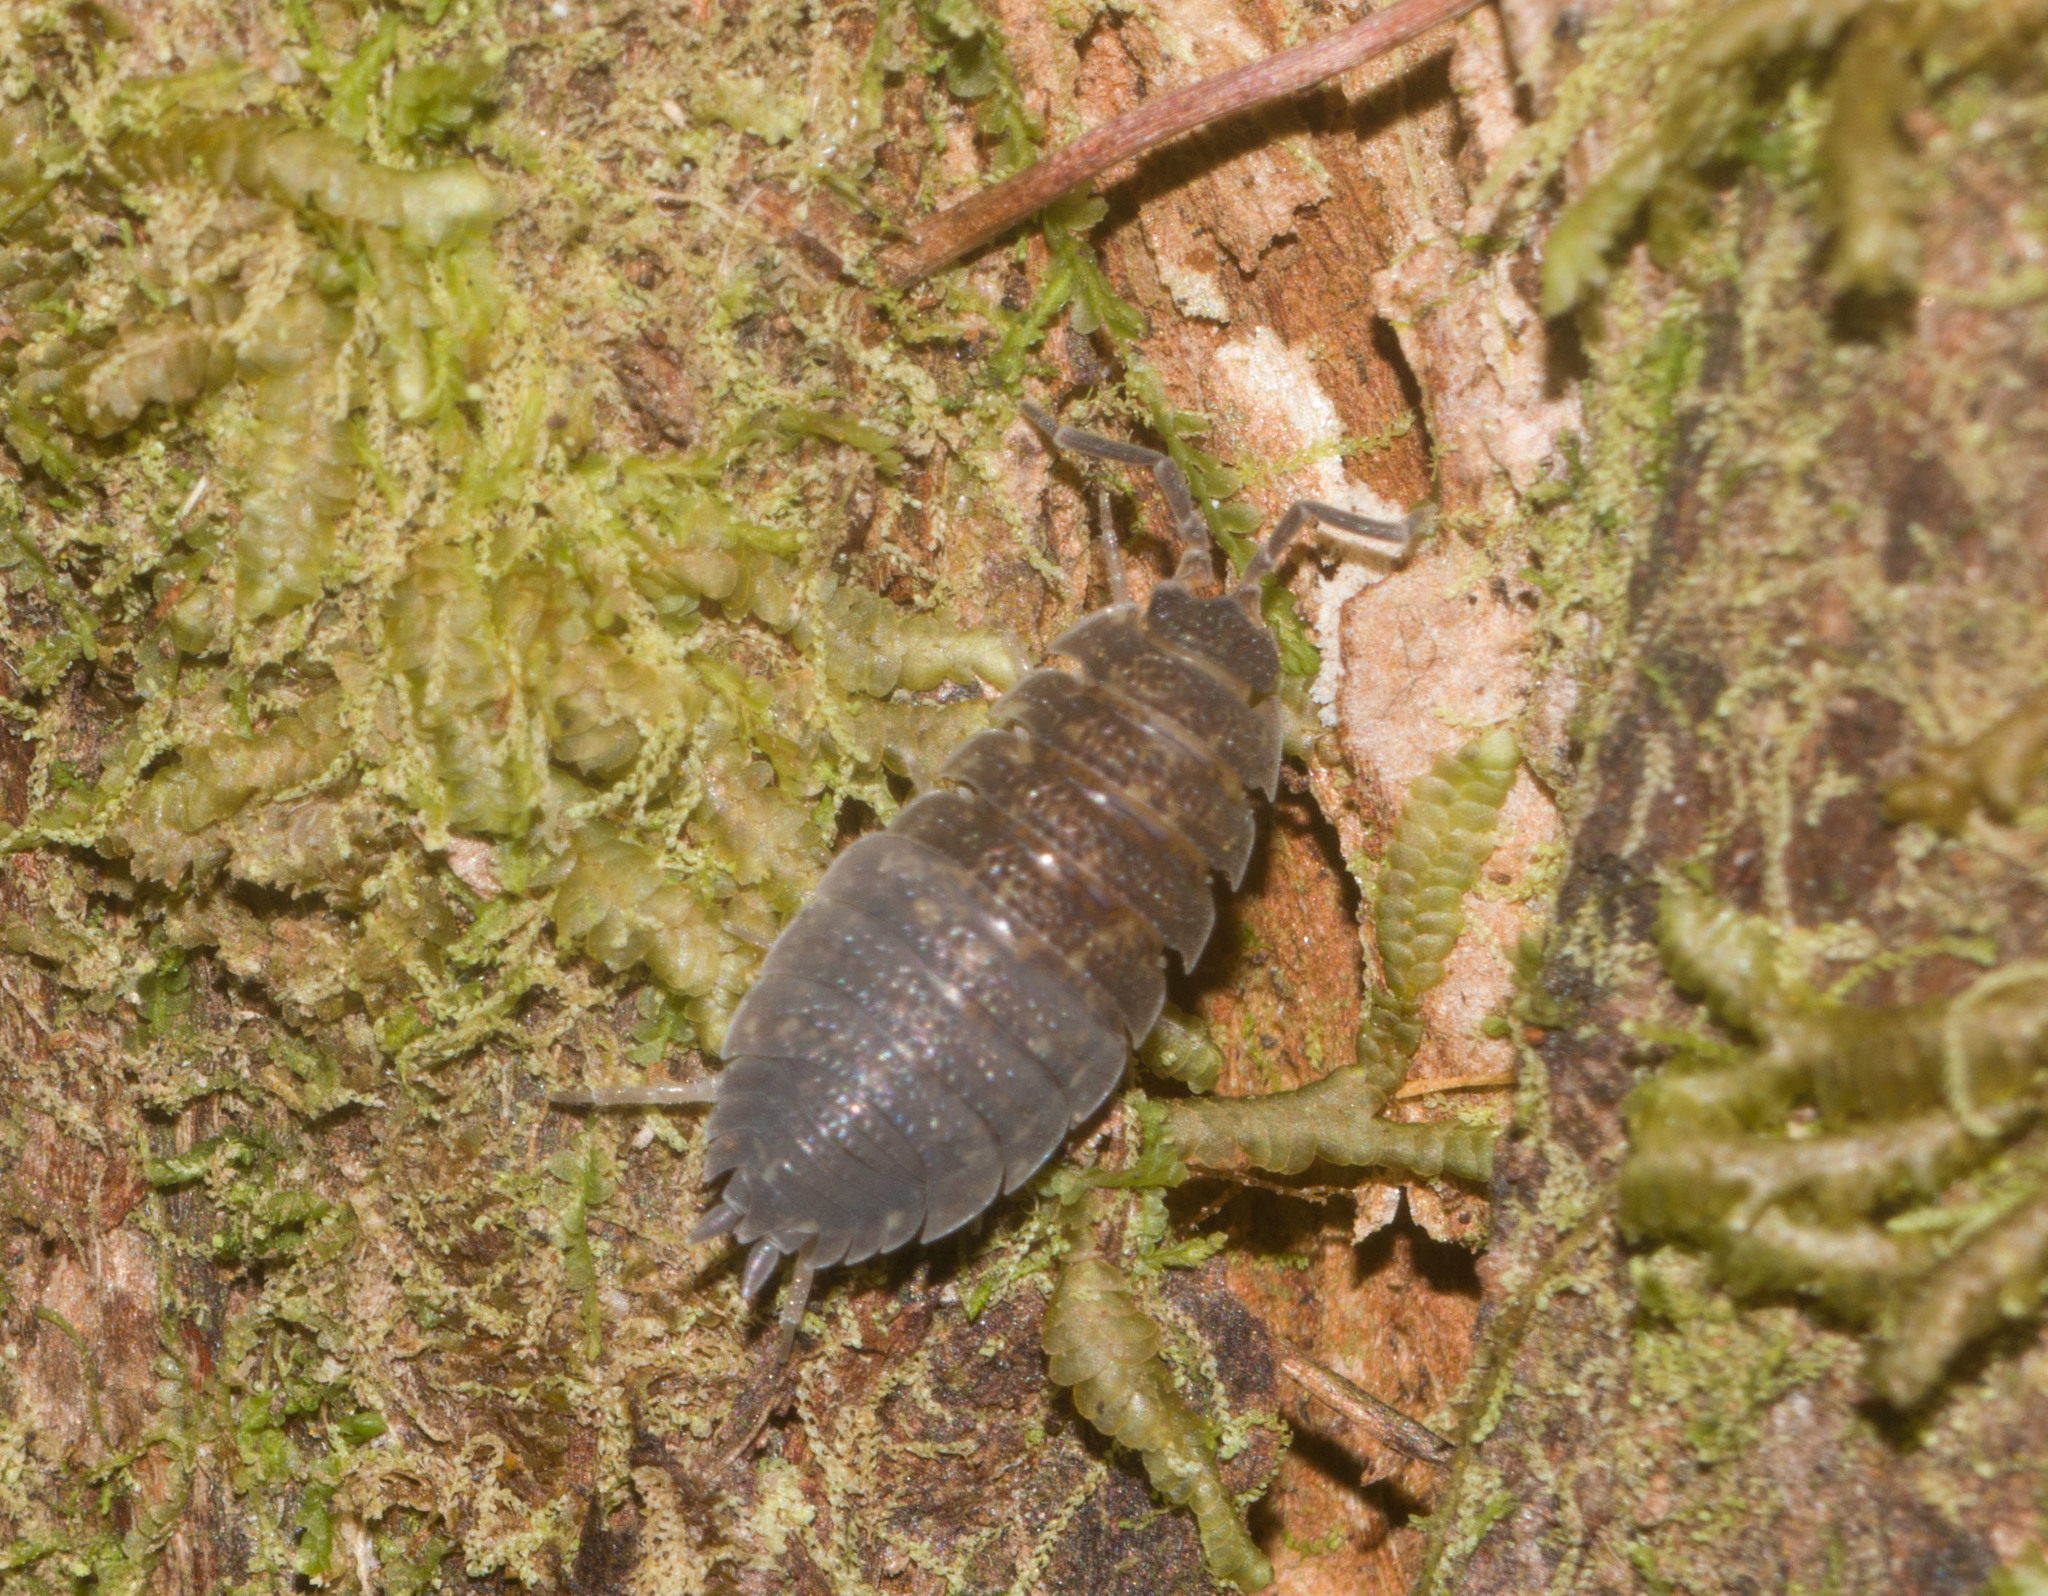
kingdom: Animalia
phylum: Arthropoda
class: Malacostraca
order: Isopoda
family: Porcellionidae
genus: Porcellio
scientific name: Porcellio scaber
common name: Common rough woodlouse
